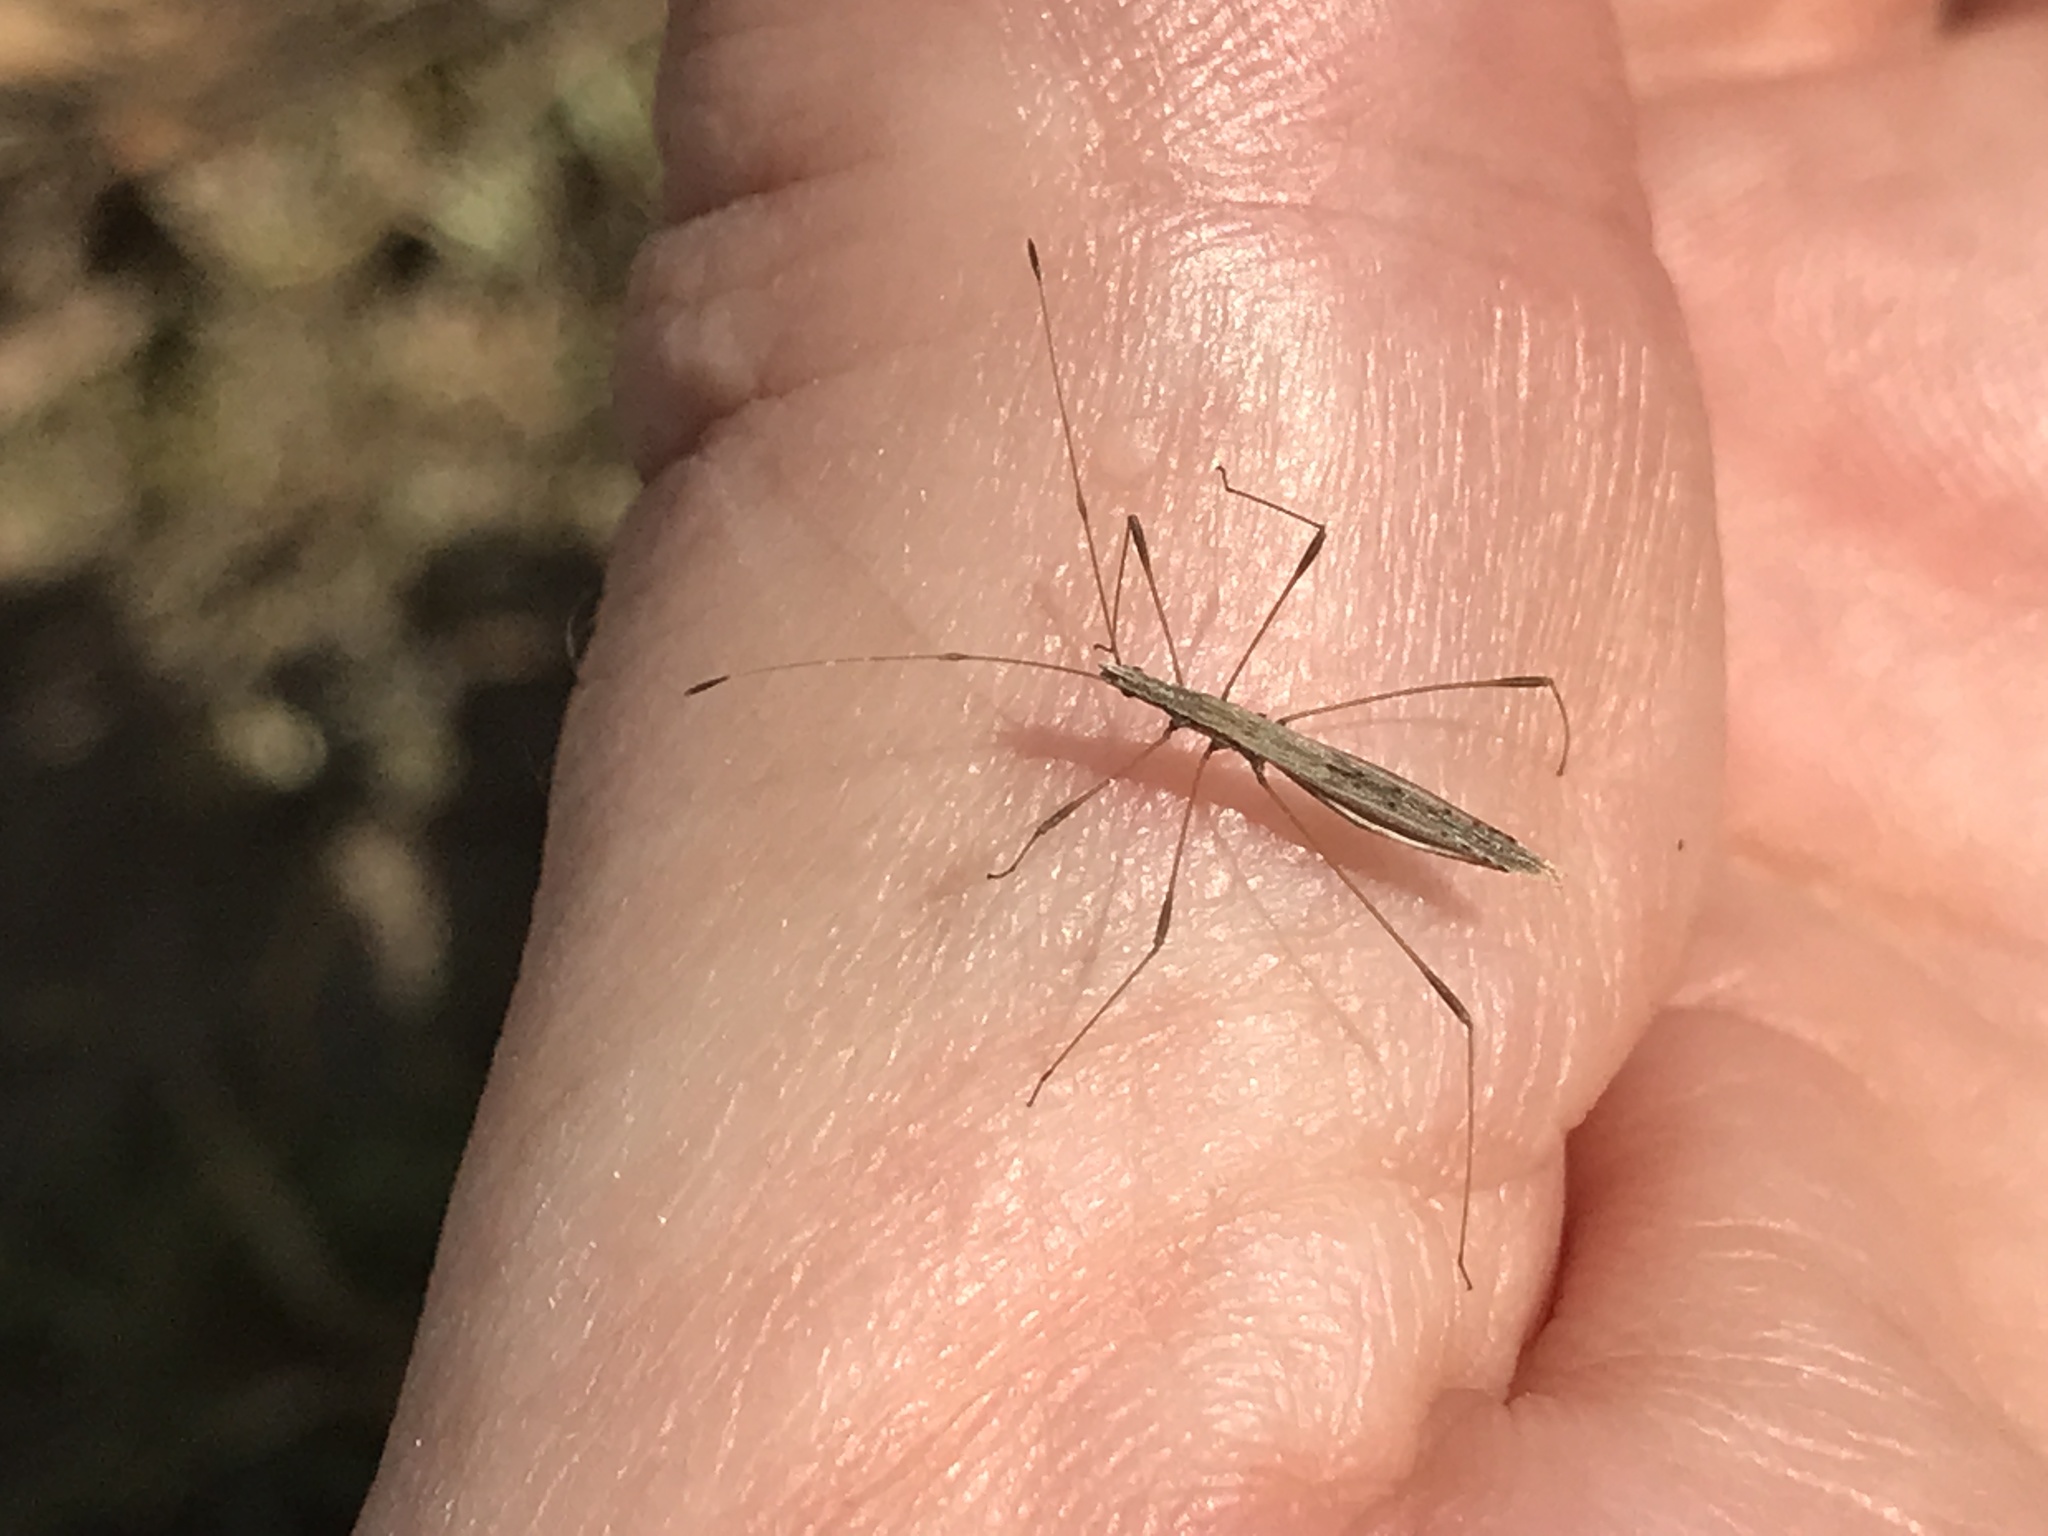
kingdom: Animalia
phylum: Arthropoda
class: Insecta
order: Hemiptera
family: Berytidae
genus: Neides
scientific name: Neides tipularius
